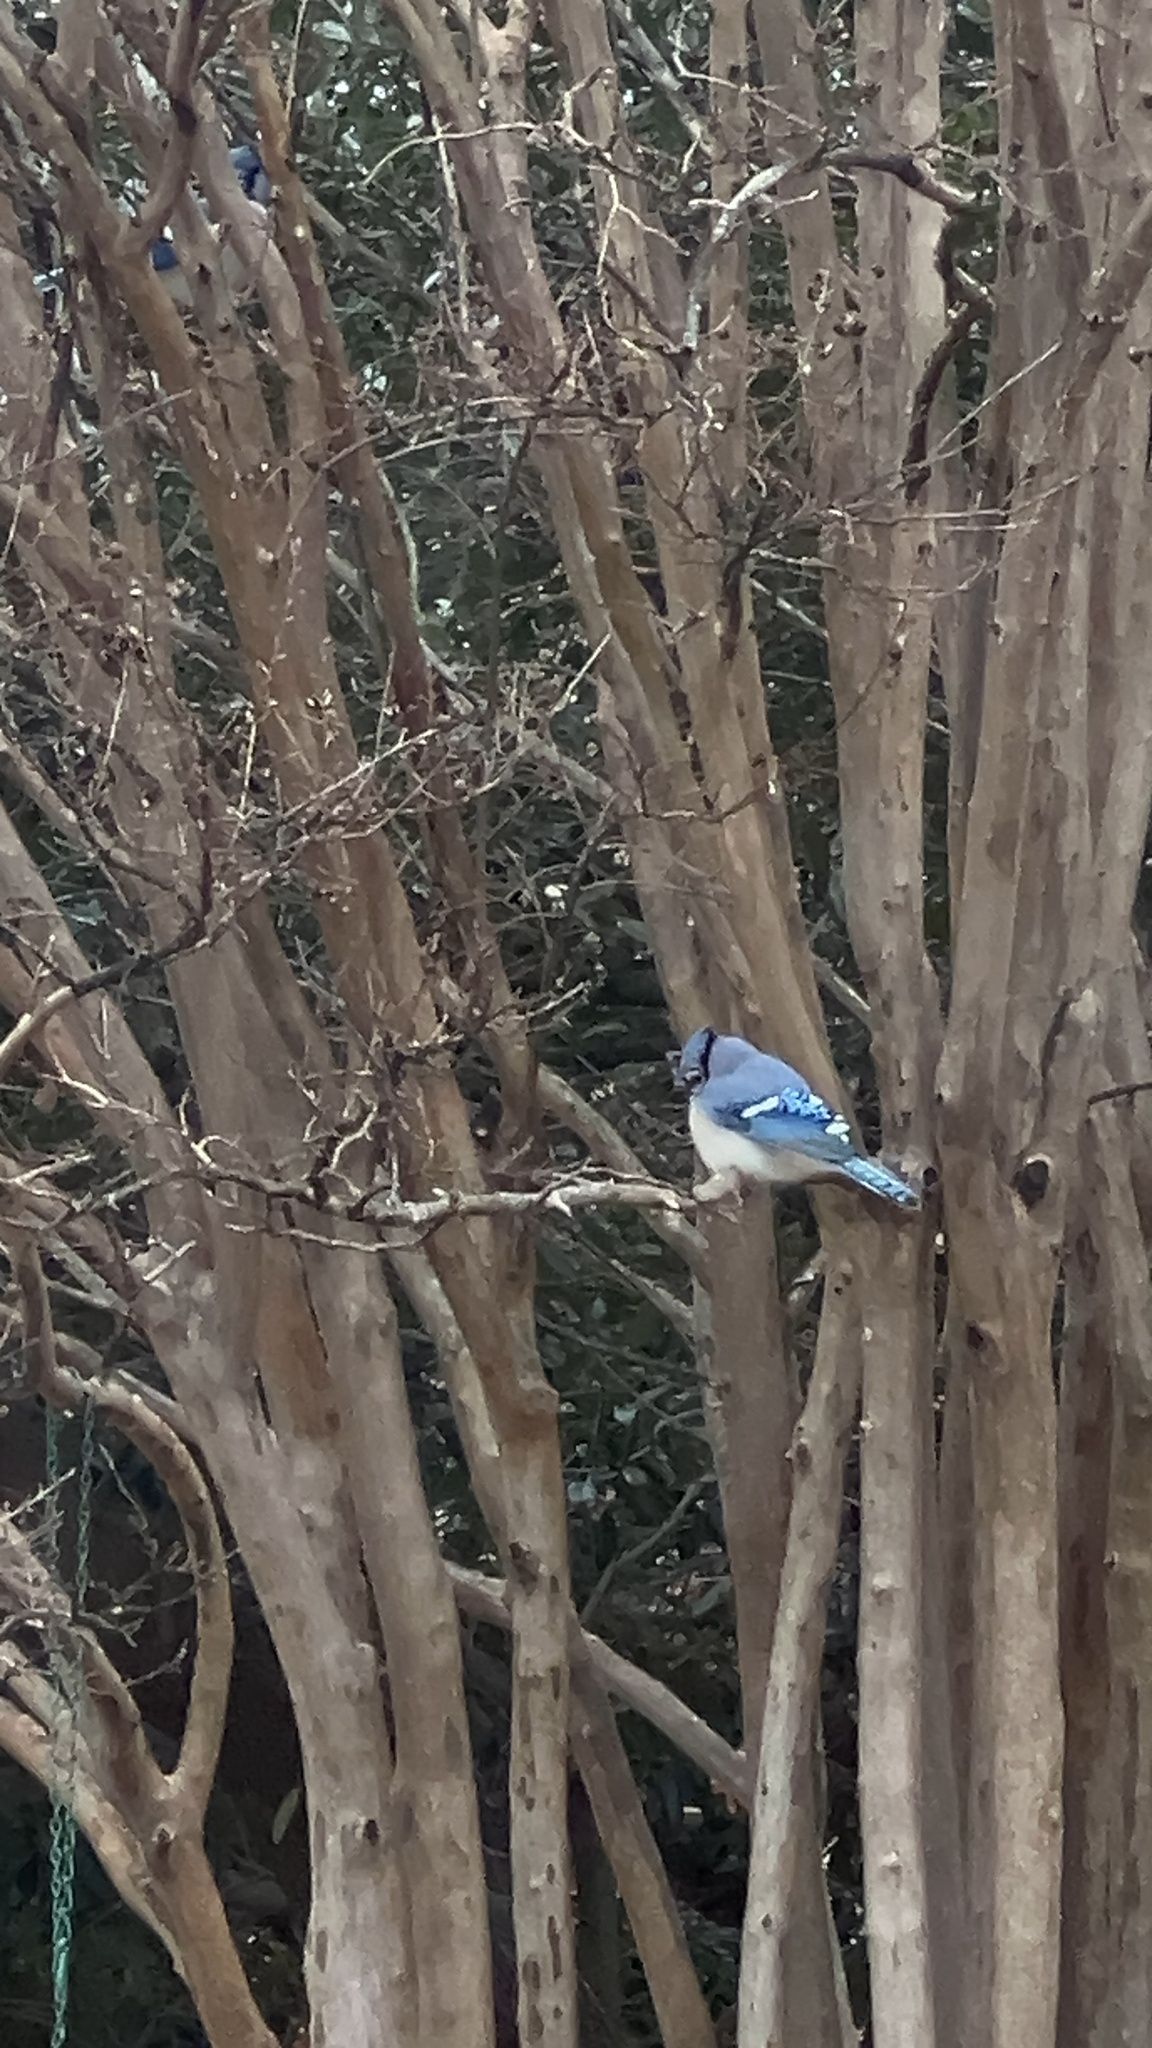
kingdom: Animalia
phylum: Chordata
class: Aves
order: Passeriformes
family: Corvidae
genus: Cyanocitta
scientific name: Cyanocitta cristata
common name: Blue jay
